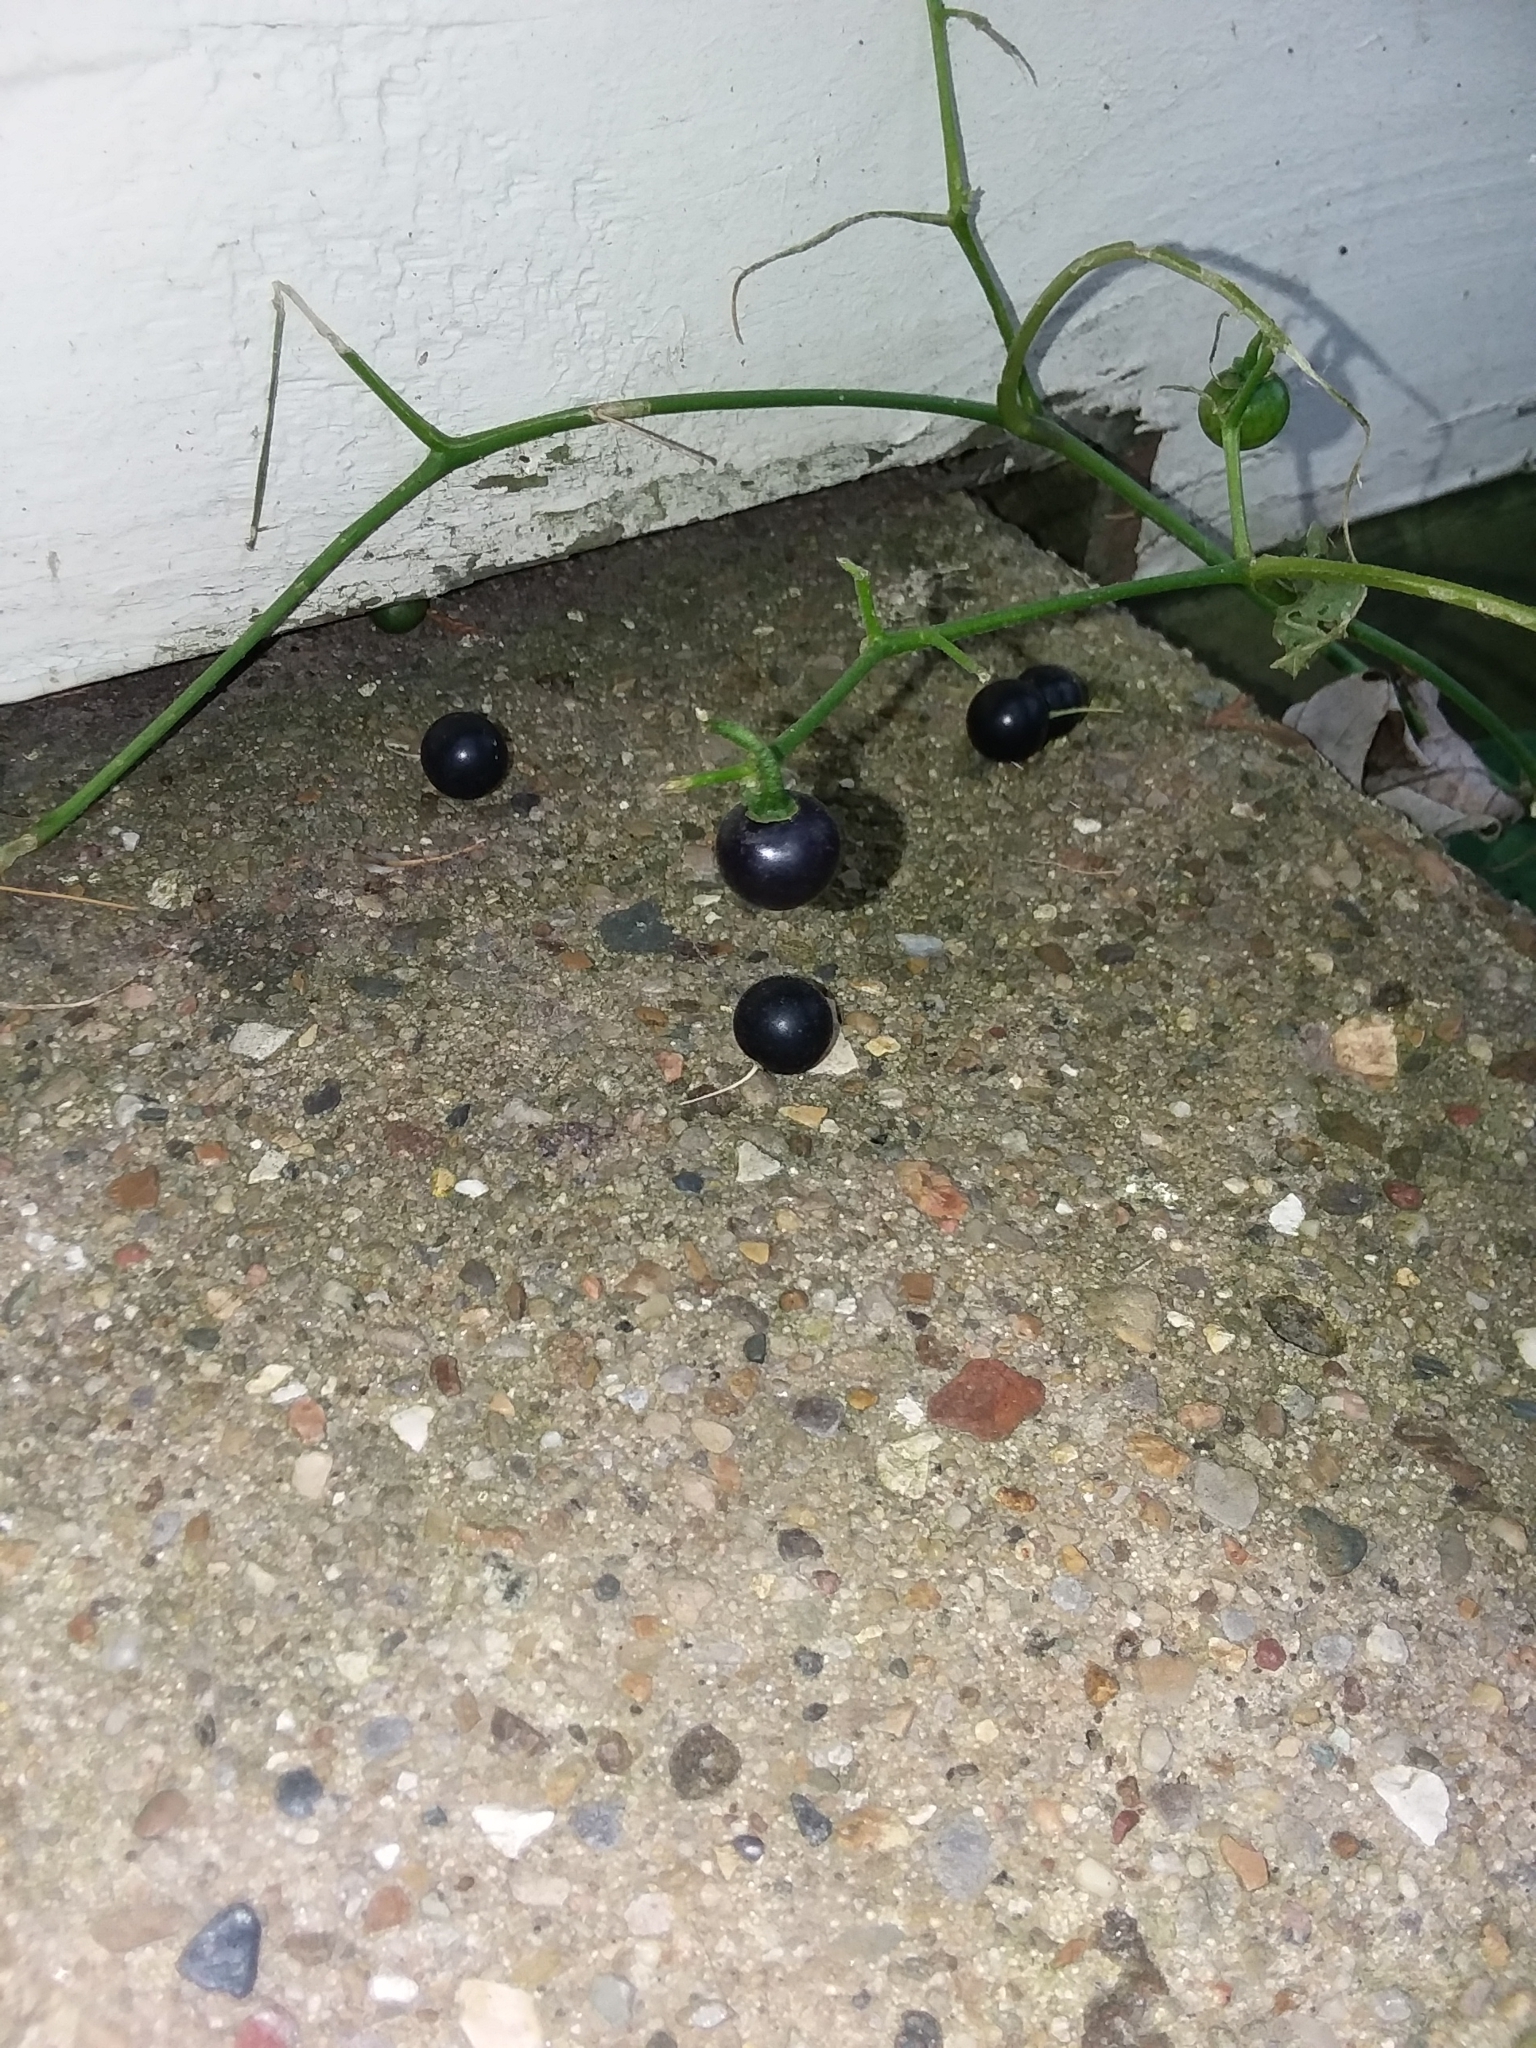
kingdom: Plantae
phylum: Tracheophyta
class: Magnoliopsida
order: Solanales
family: Solanaceae
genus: Solanum
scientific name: Solanum emulans
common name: Eastern black nightshade
